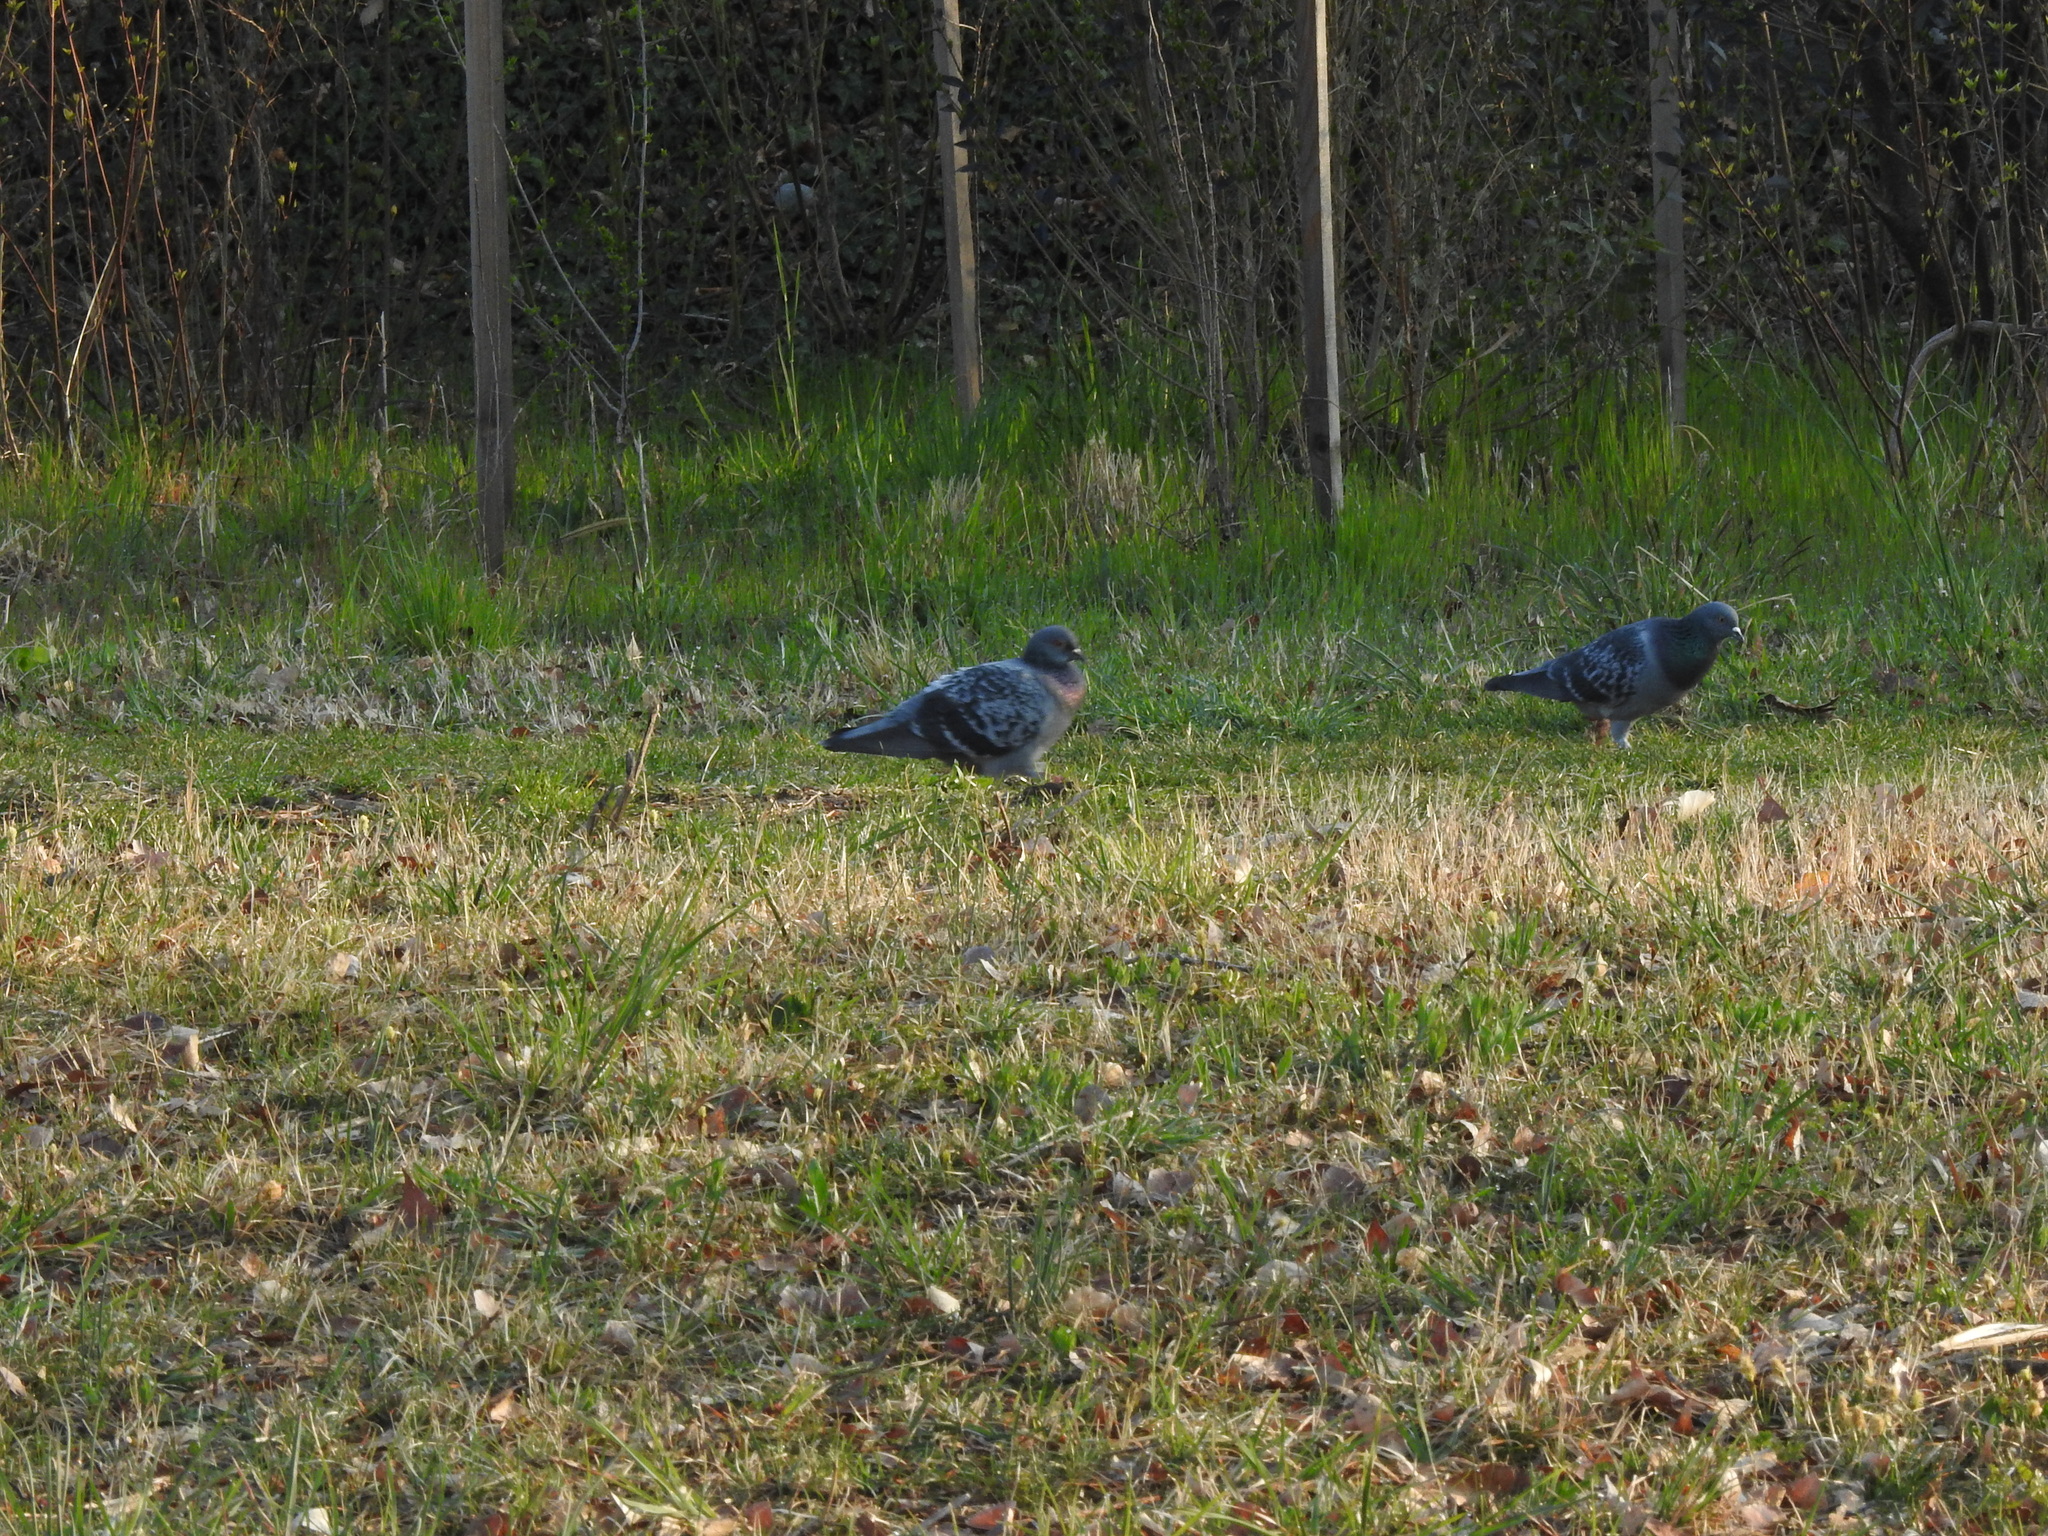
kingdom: Animalia
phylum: Chordata
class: Aves
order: Columbiformes
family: Columbidae
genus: Columba
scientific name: Columba livia
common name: Rock pigeon
